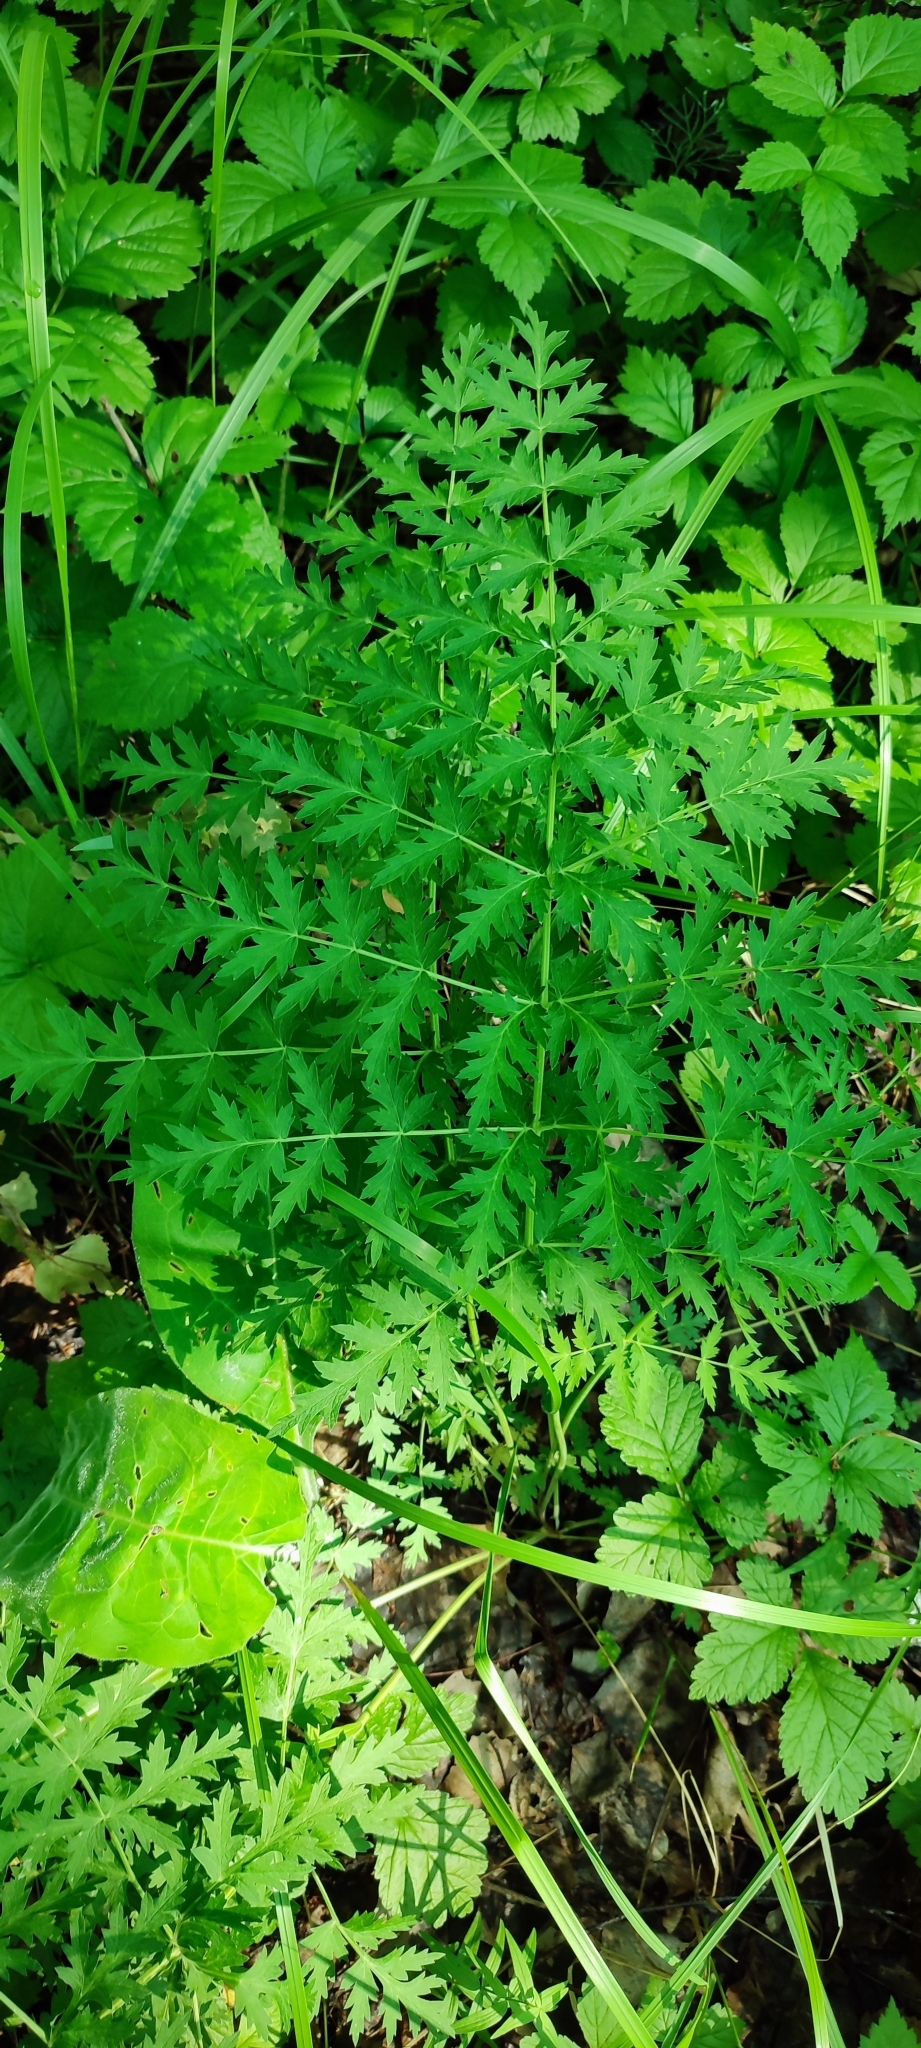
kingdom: Plantae
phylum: Tracheophyta
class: Magnoliopsida
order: Apiales
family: Apiaceae
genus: Seseli
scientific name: Seseli libanotis
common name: Mooncarrot
